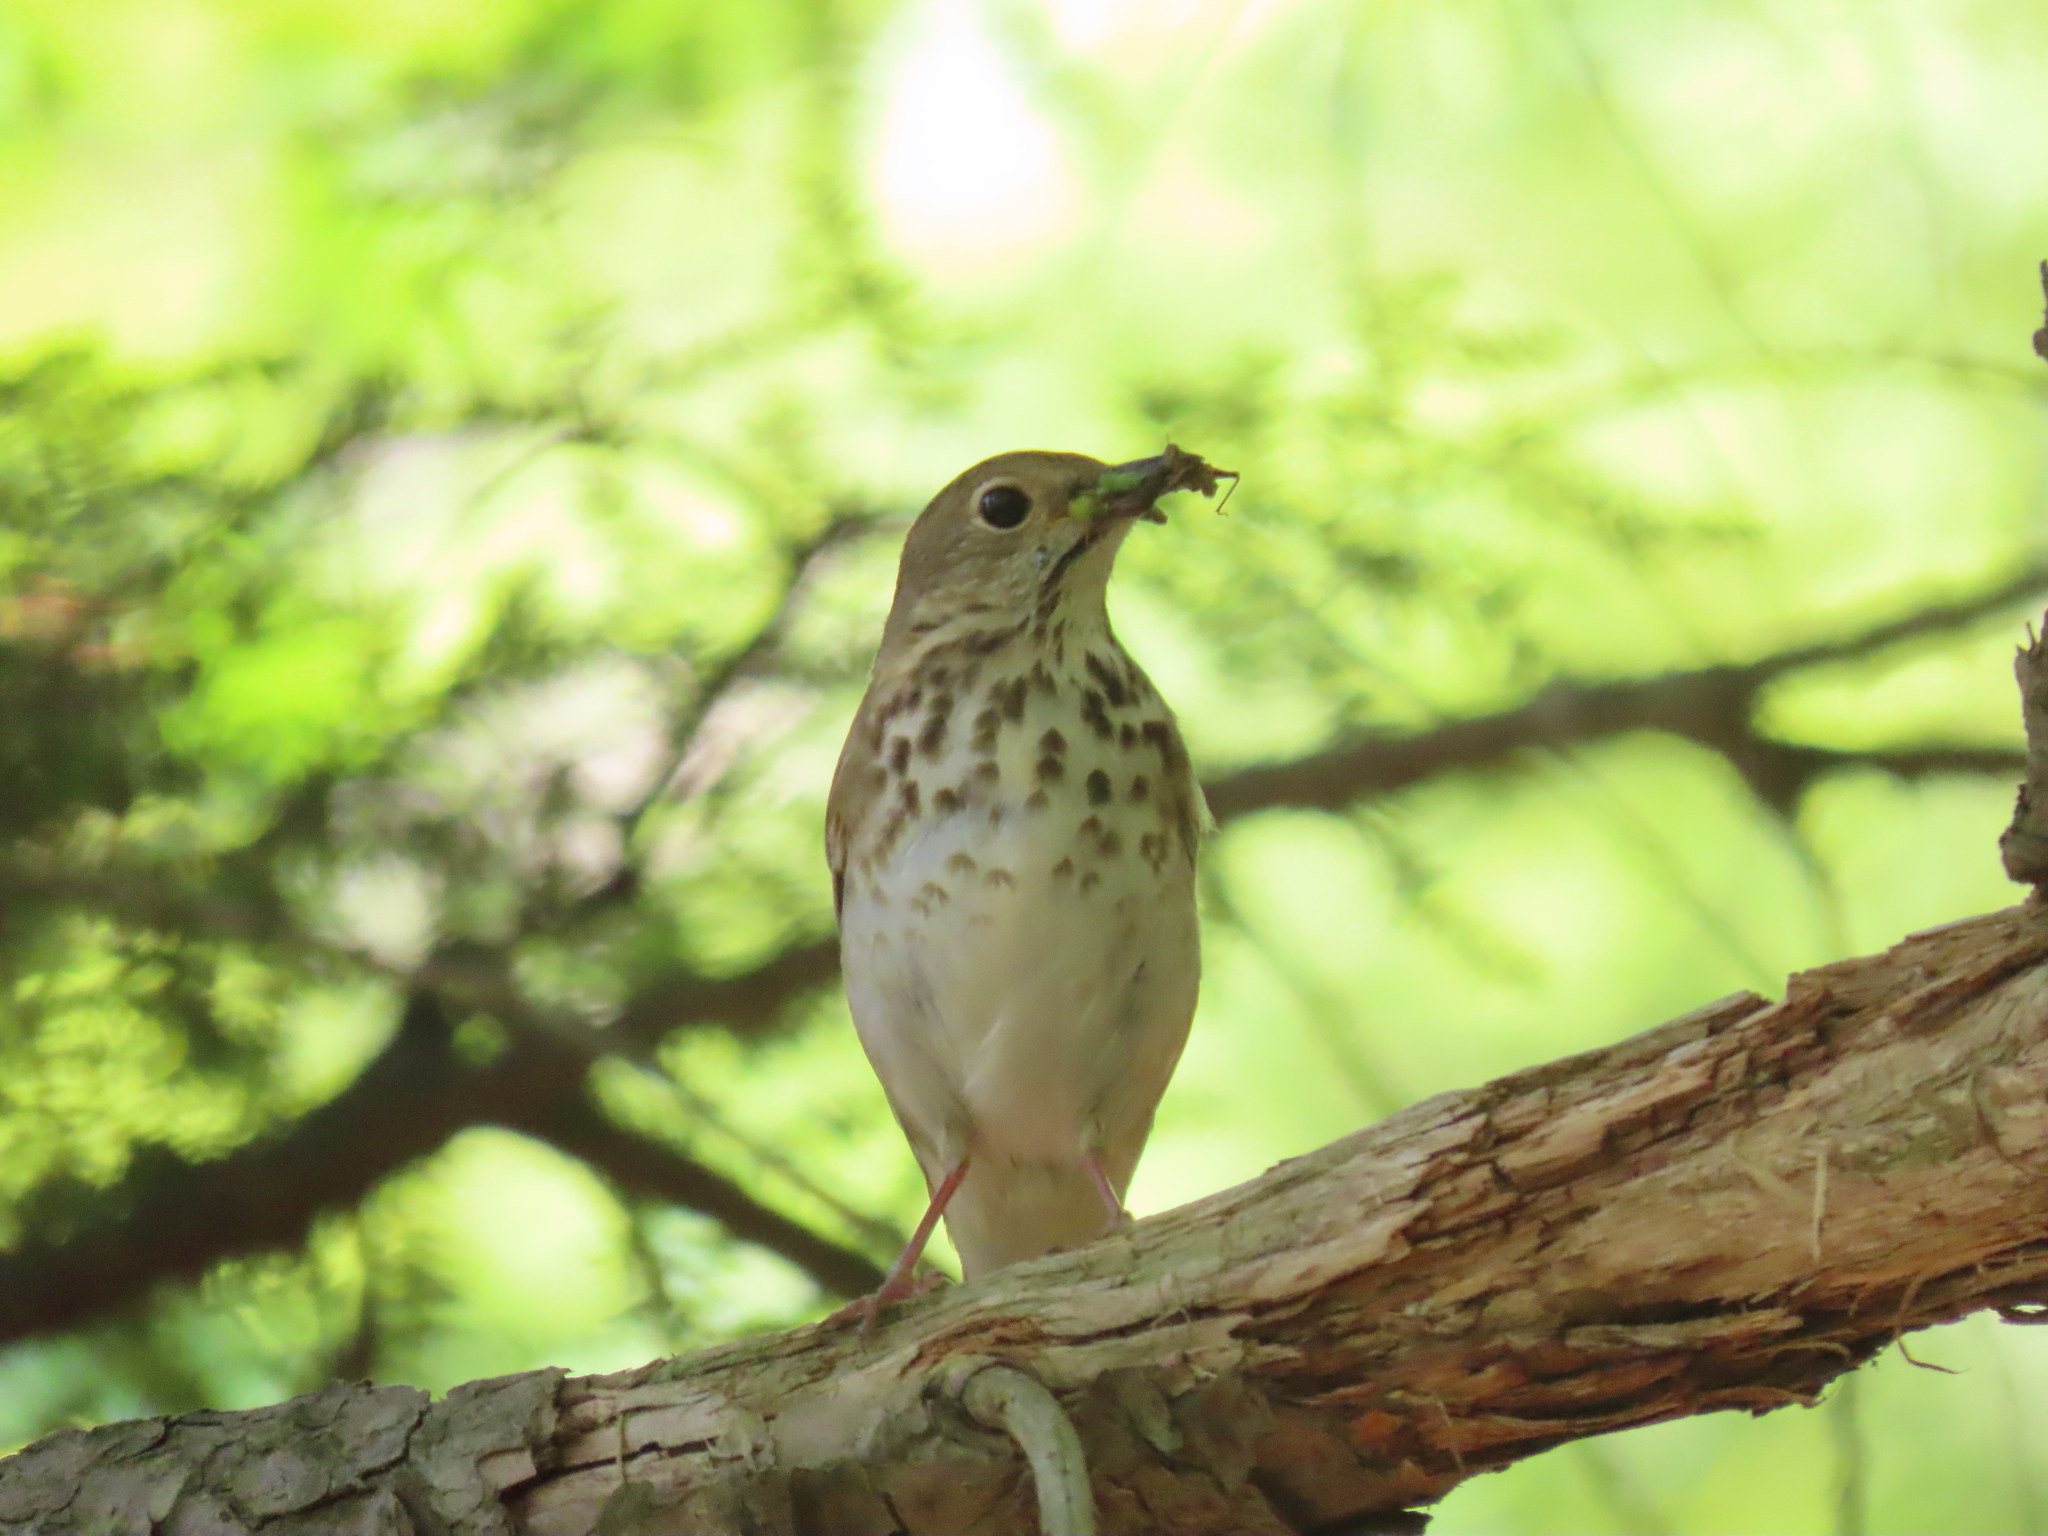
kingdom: Animalia
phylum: Chordata
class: Aves
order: Passeriformes
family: Turdidae
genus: Catharus
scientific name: Catharus ustulatus
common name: Swainson's thrush
